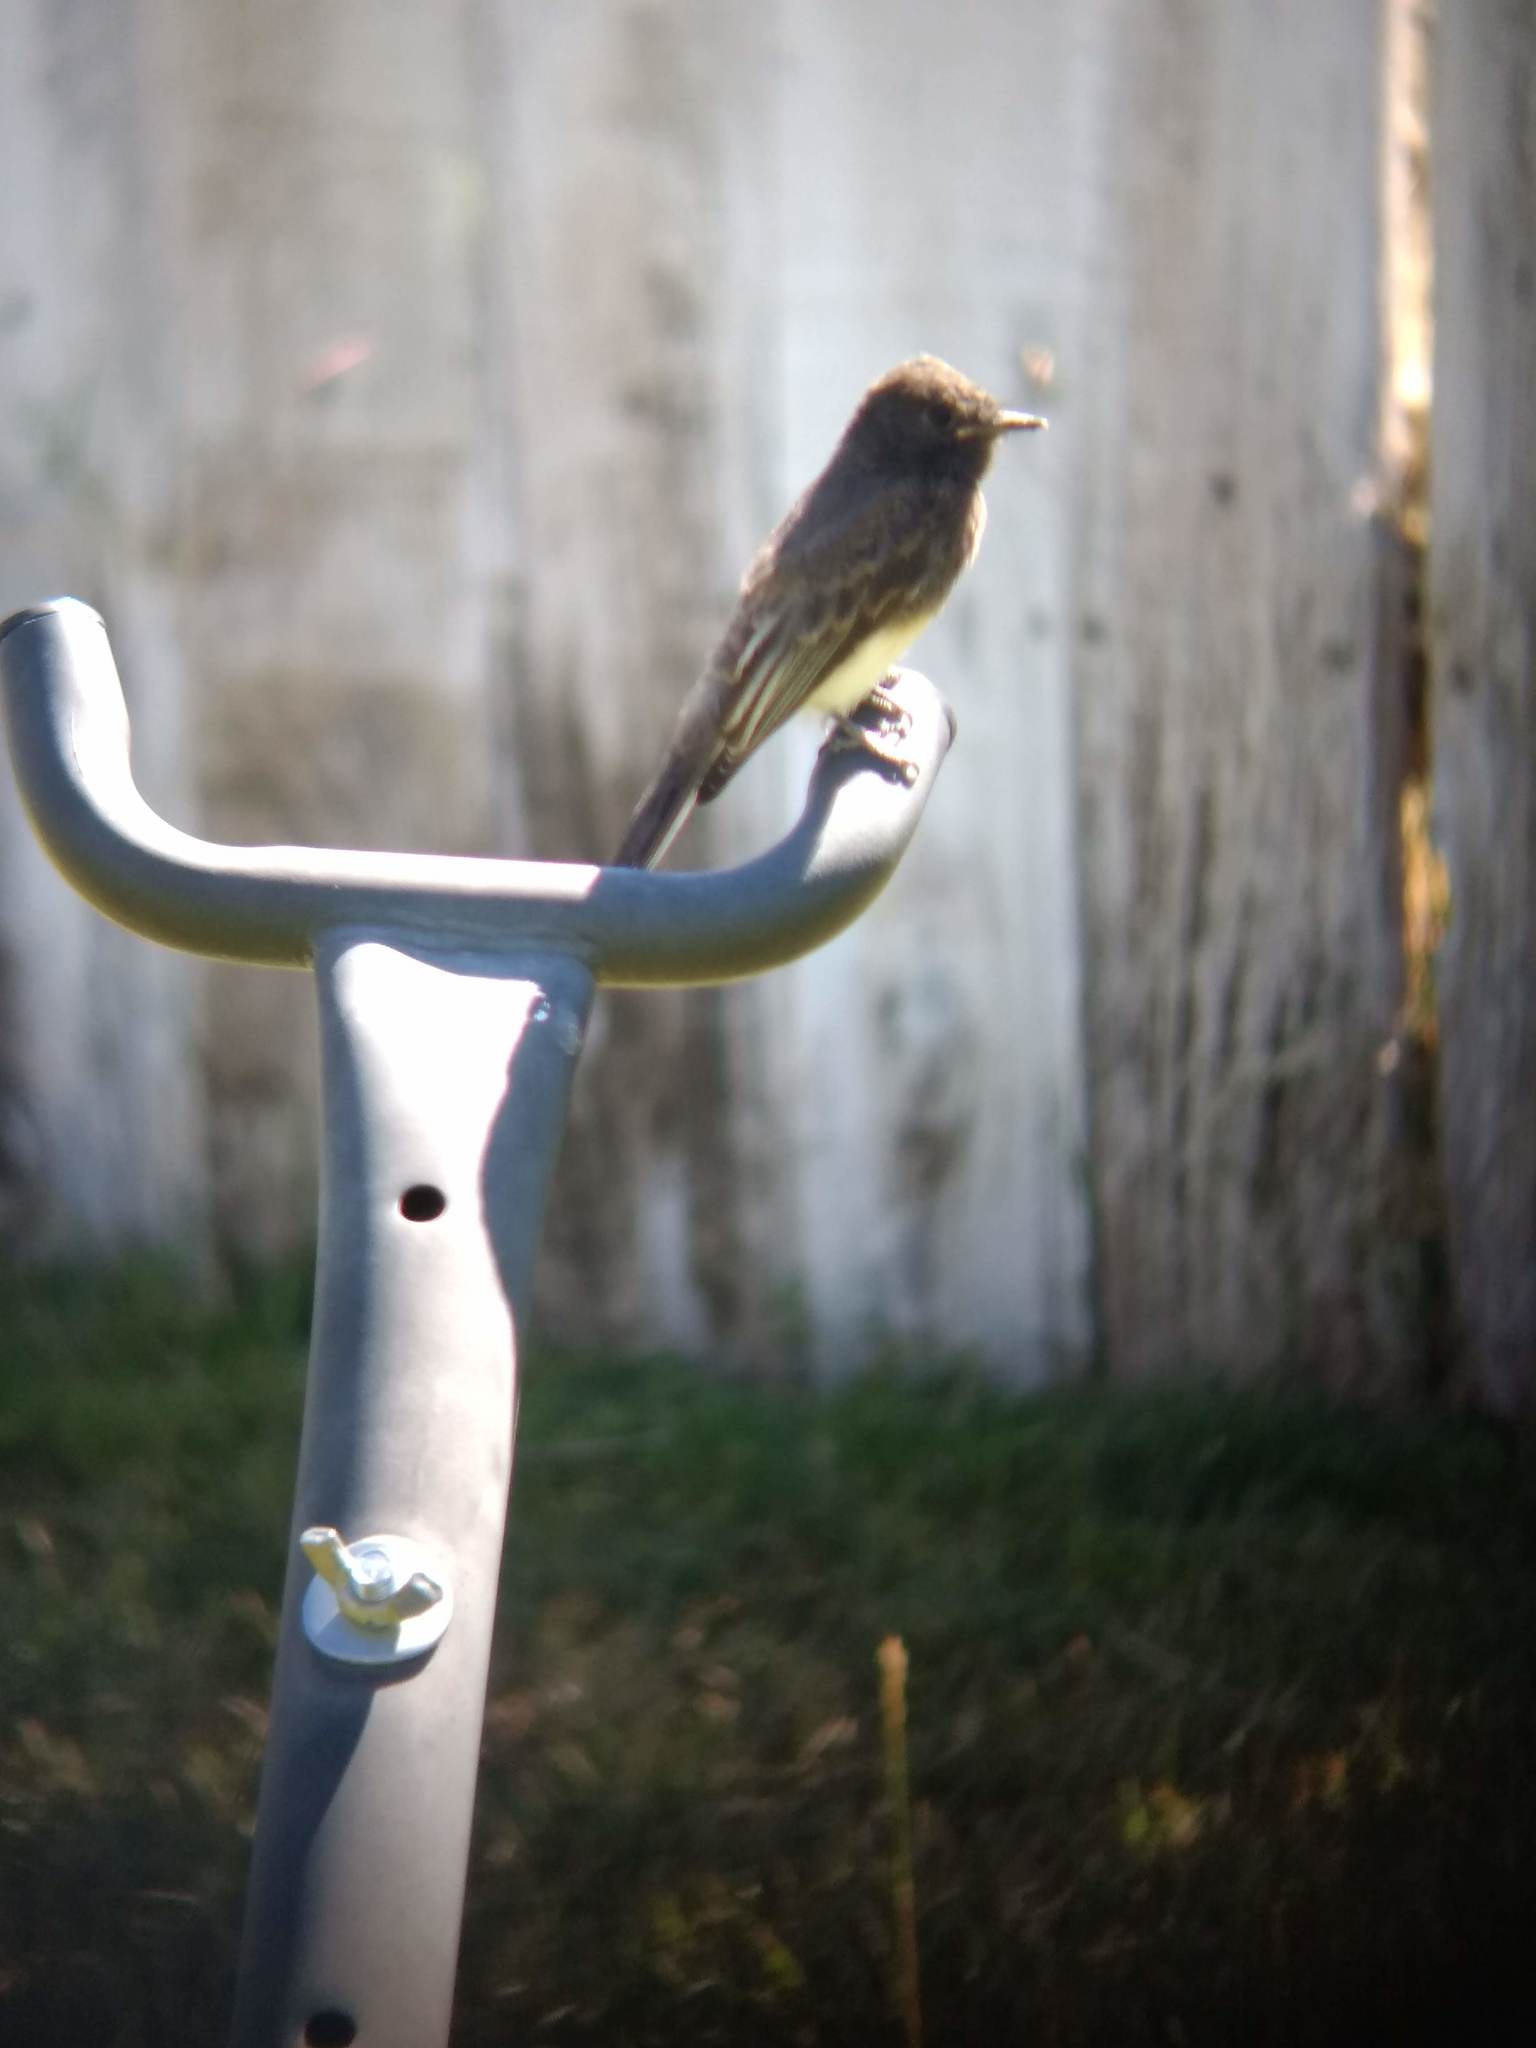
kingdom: Animalia
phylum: Chordata
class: Aves
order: Passeriformes
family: Tyrannidae
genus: Sayornis
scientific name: Sayornis nigricans
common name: Black phoebe
